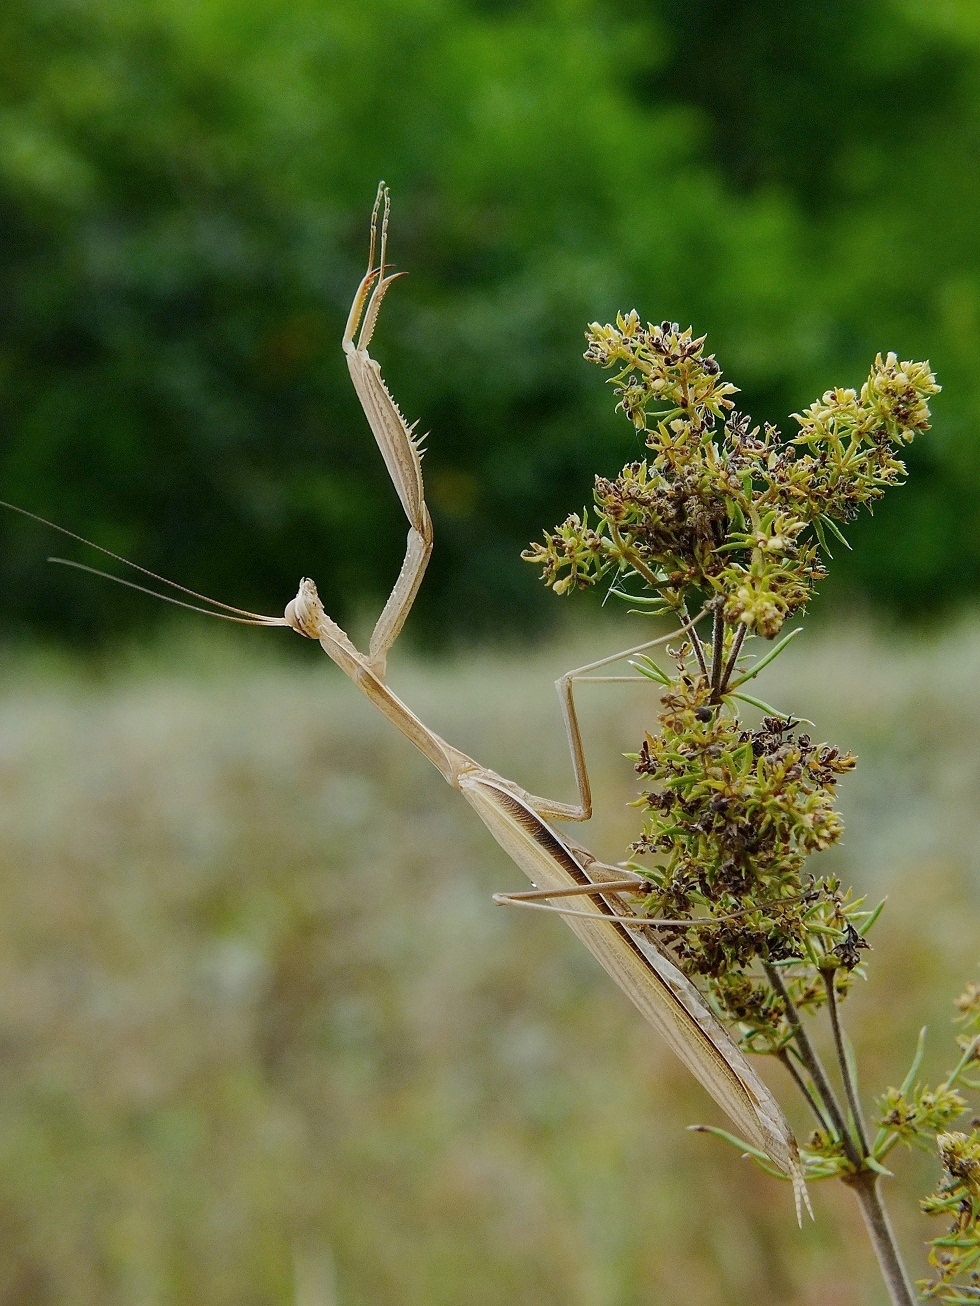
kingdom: Animalia
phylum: Arthropoda
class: Insecta
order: Mantodea
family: Mantidae
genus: Mantis
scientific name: Mantis religiosa
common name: Praying mantis
